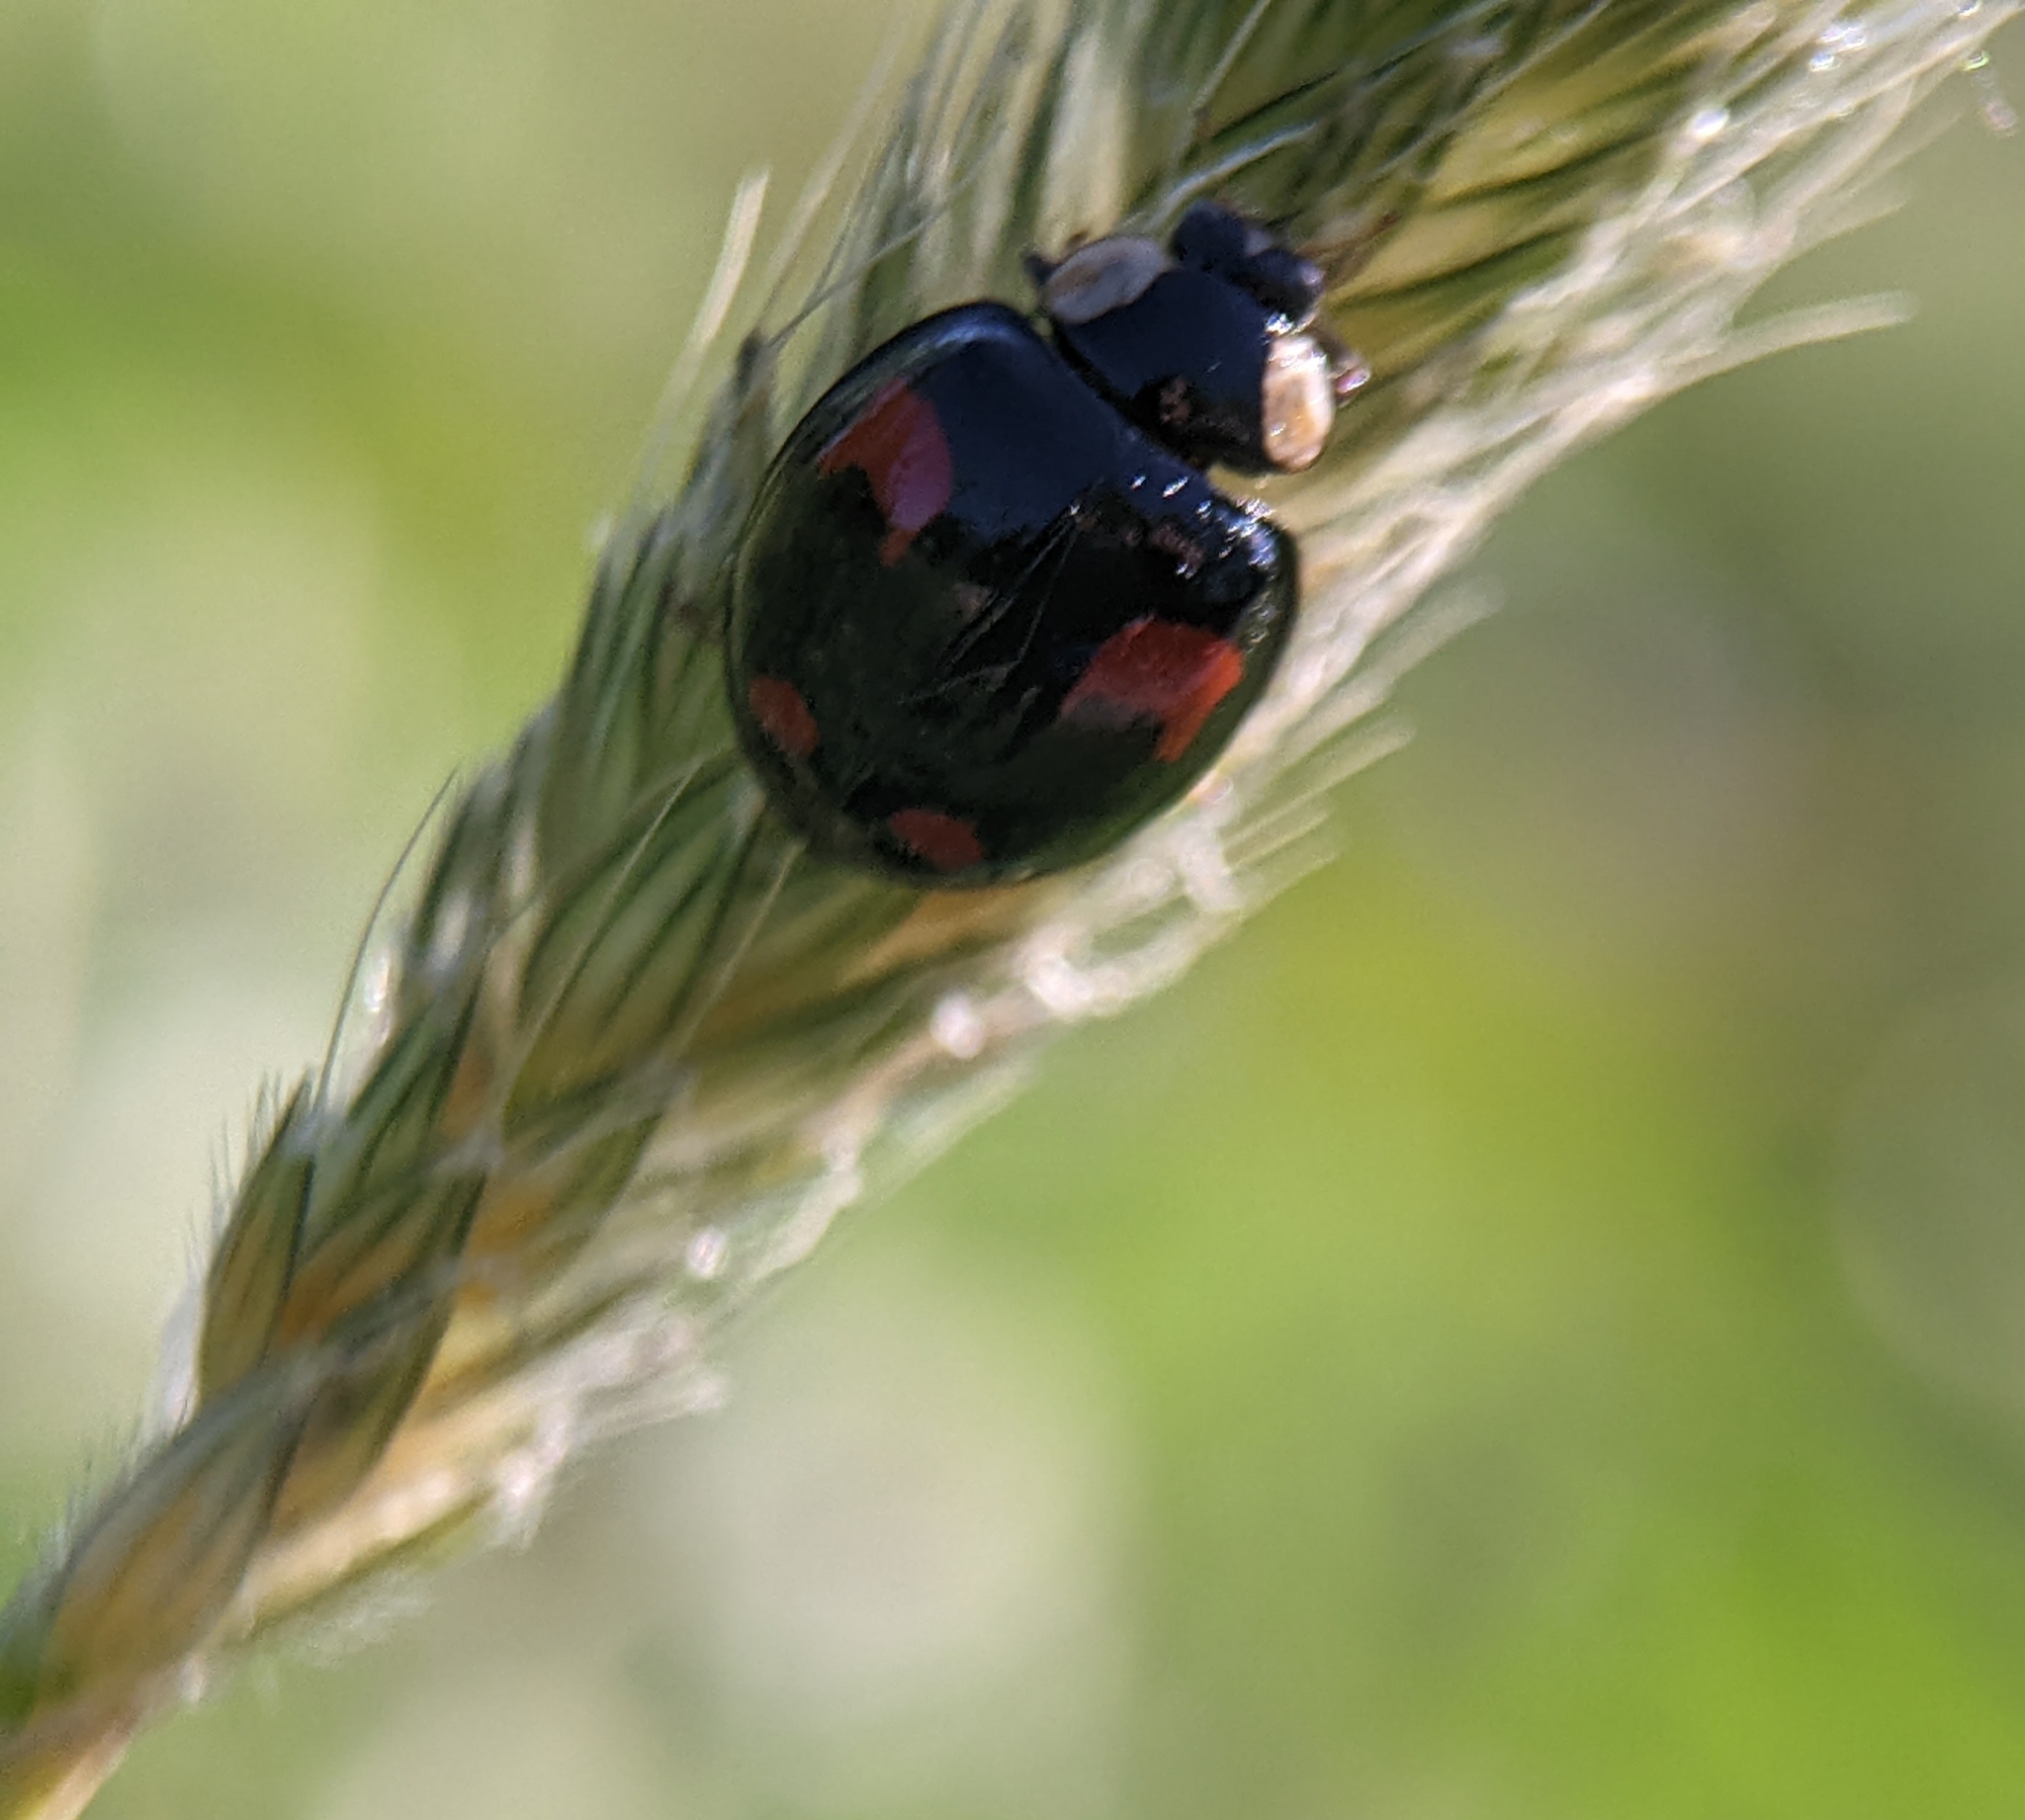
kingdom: Animalia
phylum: Arthropoda
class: Insecta
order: Coleoptera
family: Coccinellidae
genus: Harmonia
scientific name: Harmonia axyridis
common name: Harlequin ladybird
